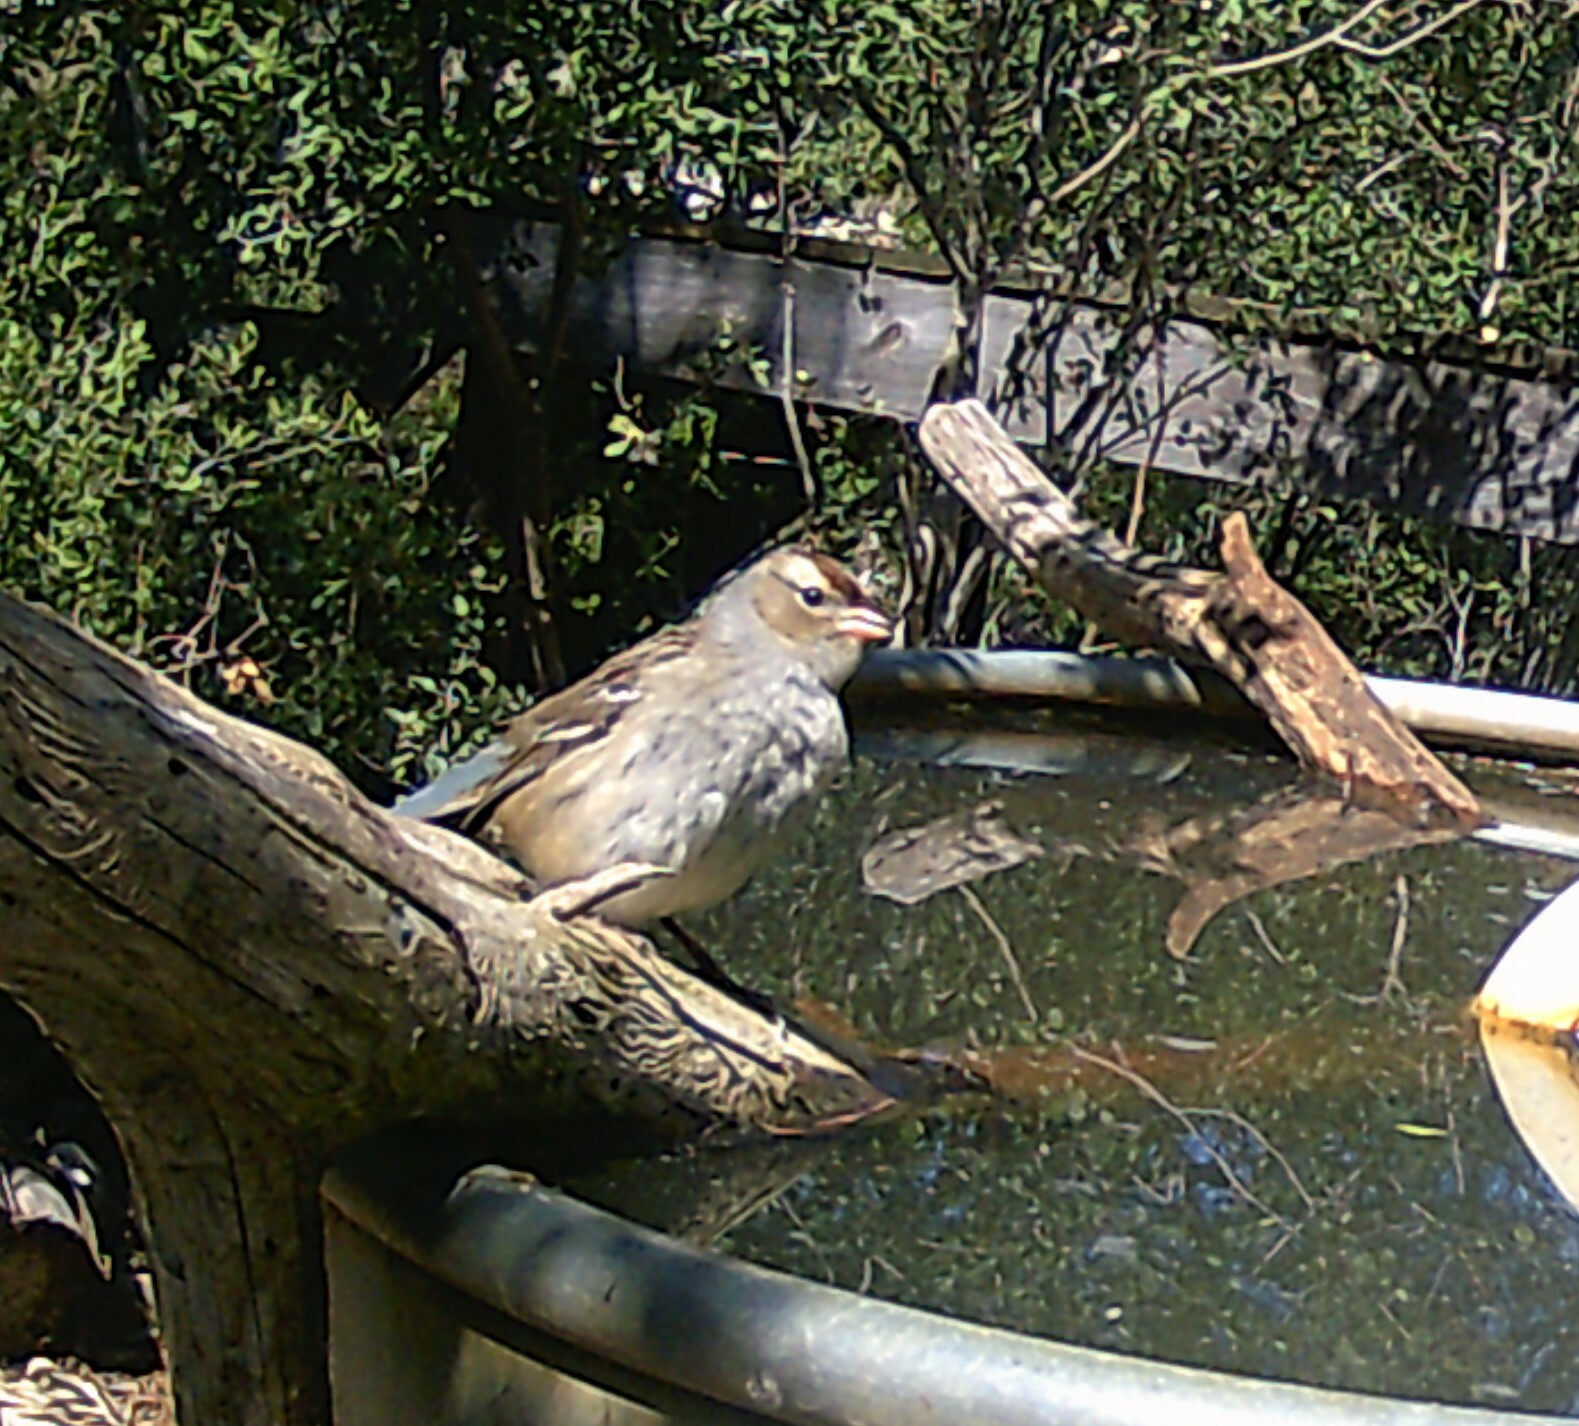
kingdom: Animalia
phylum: Chordata
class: Aves
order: Passeriformes
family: Passerellidae
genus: Zonotrichia
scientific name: Zonotrichia leucophrys
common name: White-crowned sparrow
